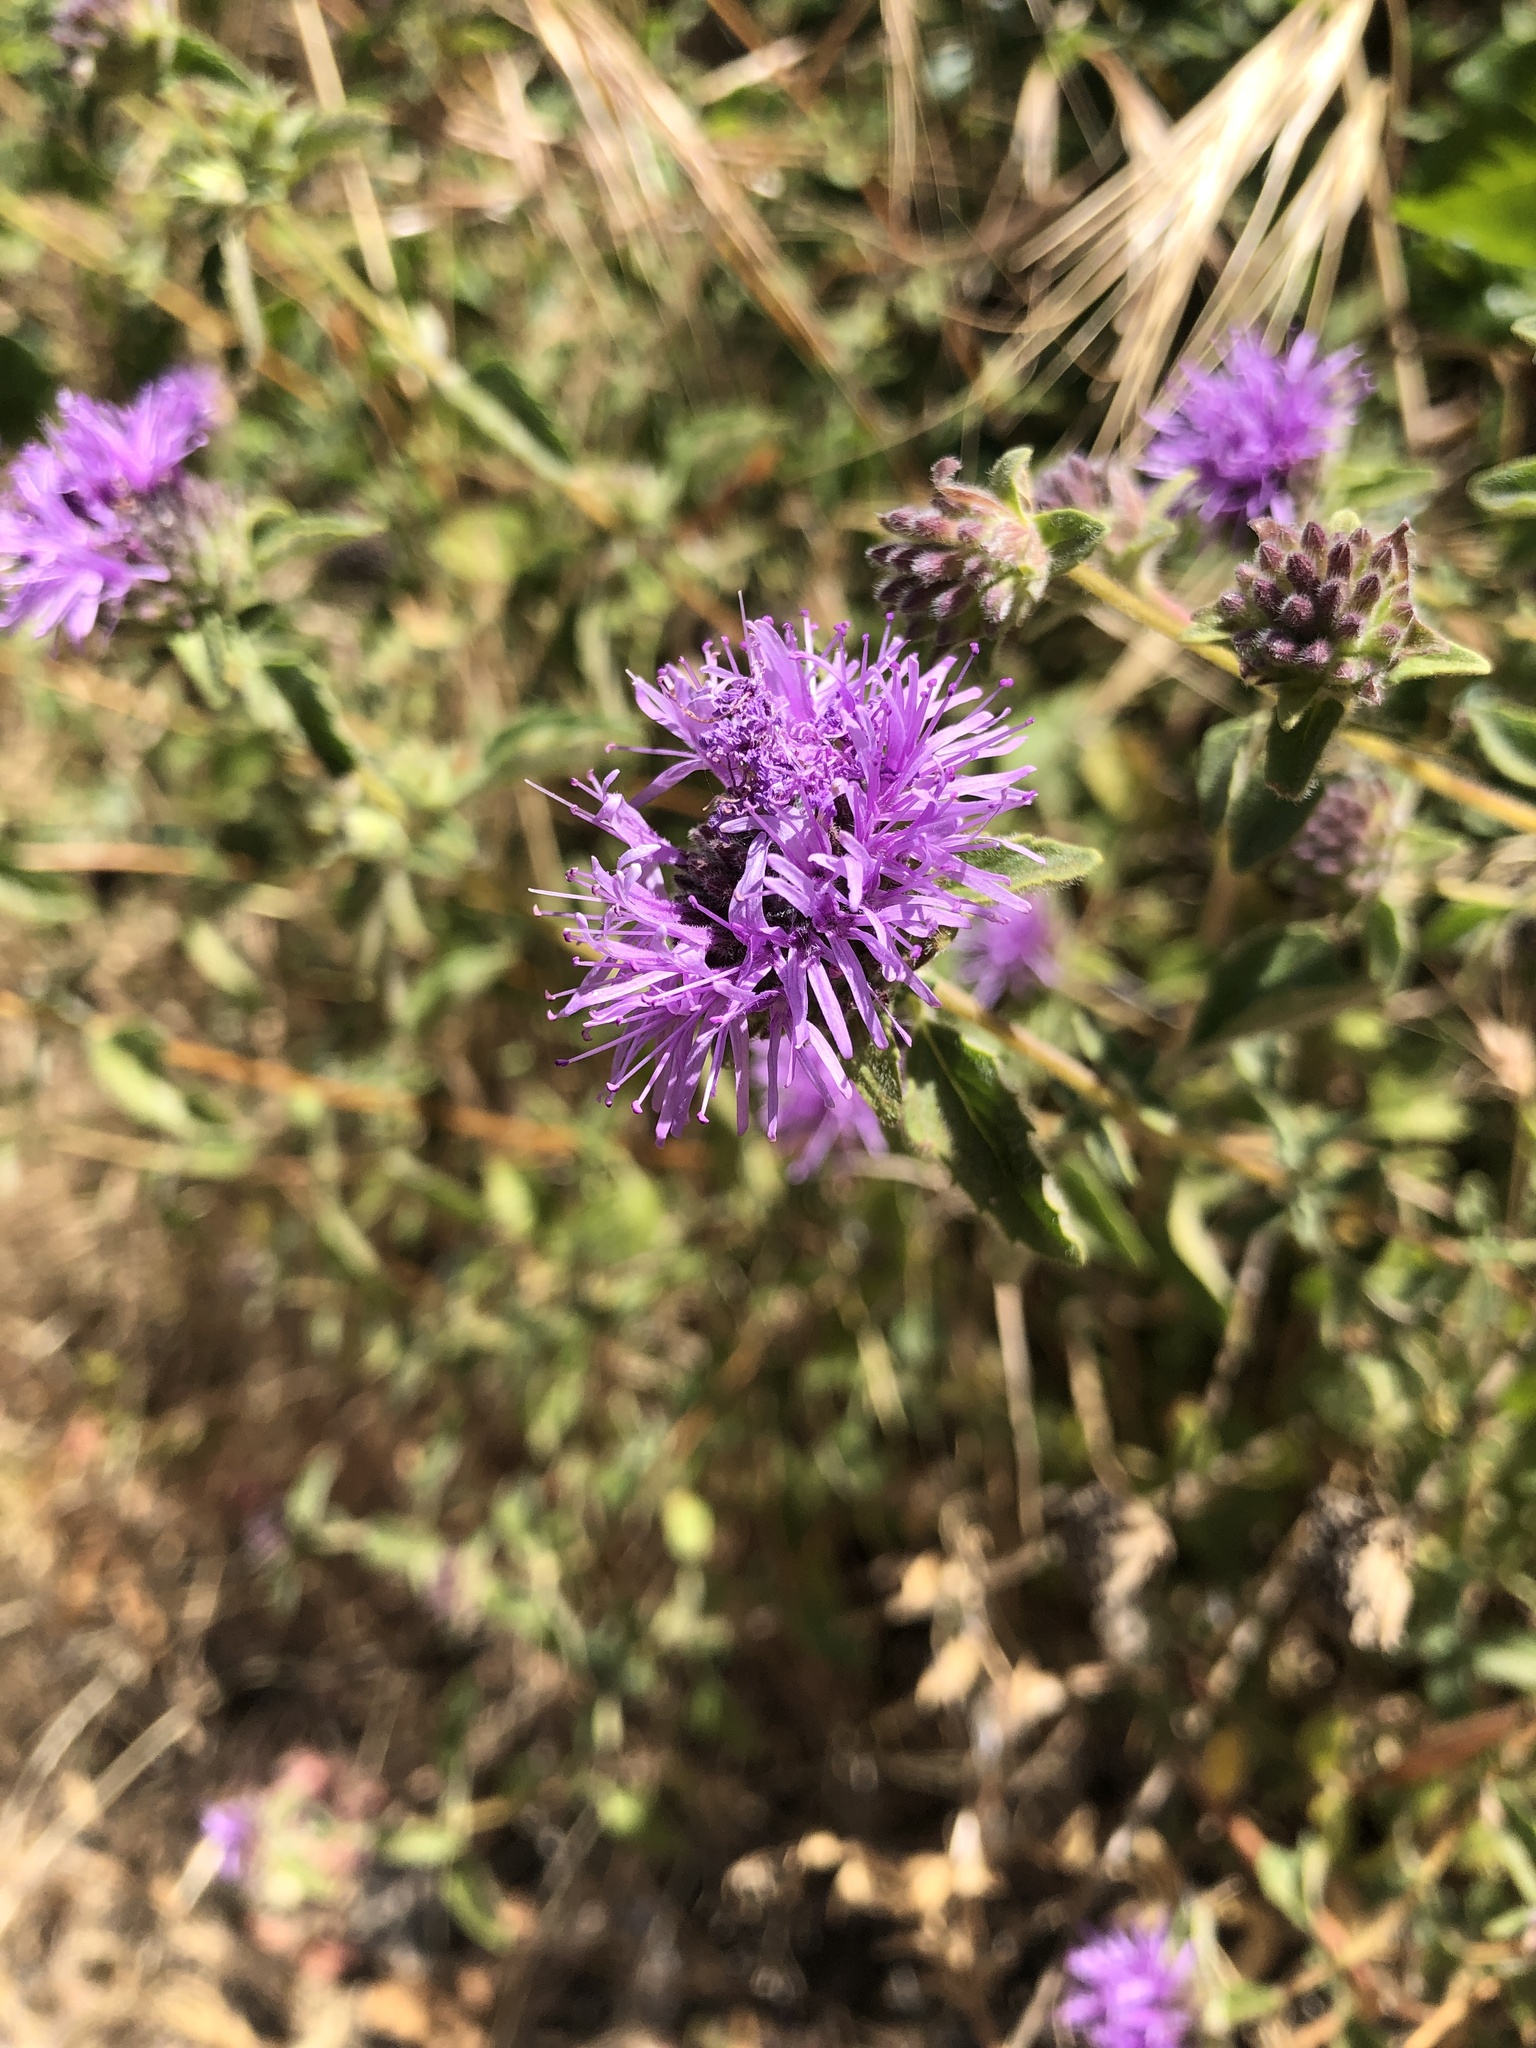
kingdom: Plantae
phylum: Tracheophyta
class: Magnoliopsida
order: Lamiales
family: Lamiaceae
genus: Monardella
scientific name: Monardella odoratissima
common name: Pacific monardella
